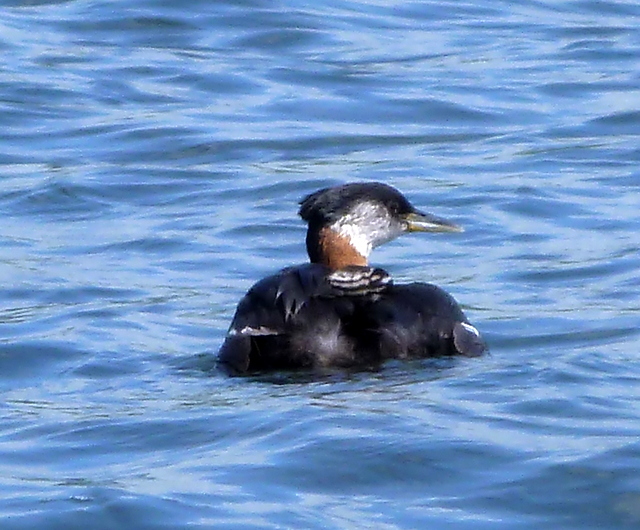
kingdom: Animalia
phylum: Chordata
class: Aves
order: Podicipediformes
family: Podicipedidae
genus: Podiceps
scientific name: Podiceps grisegena
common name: Red-necked grebe
